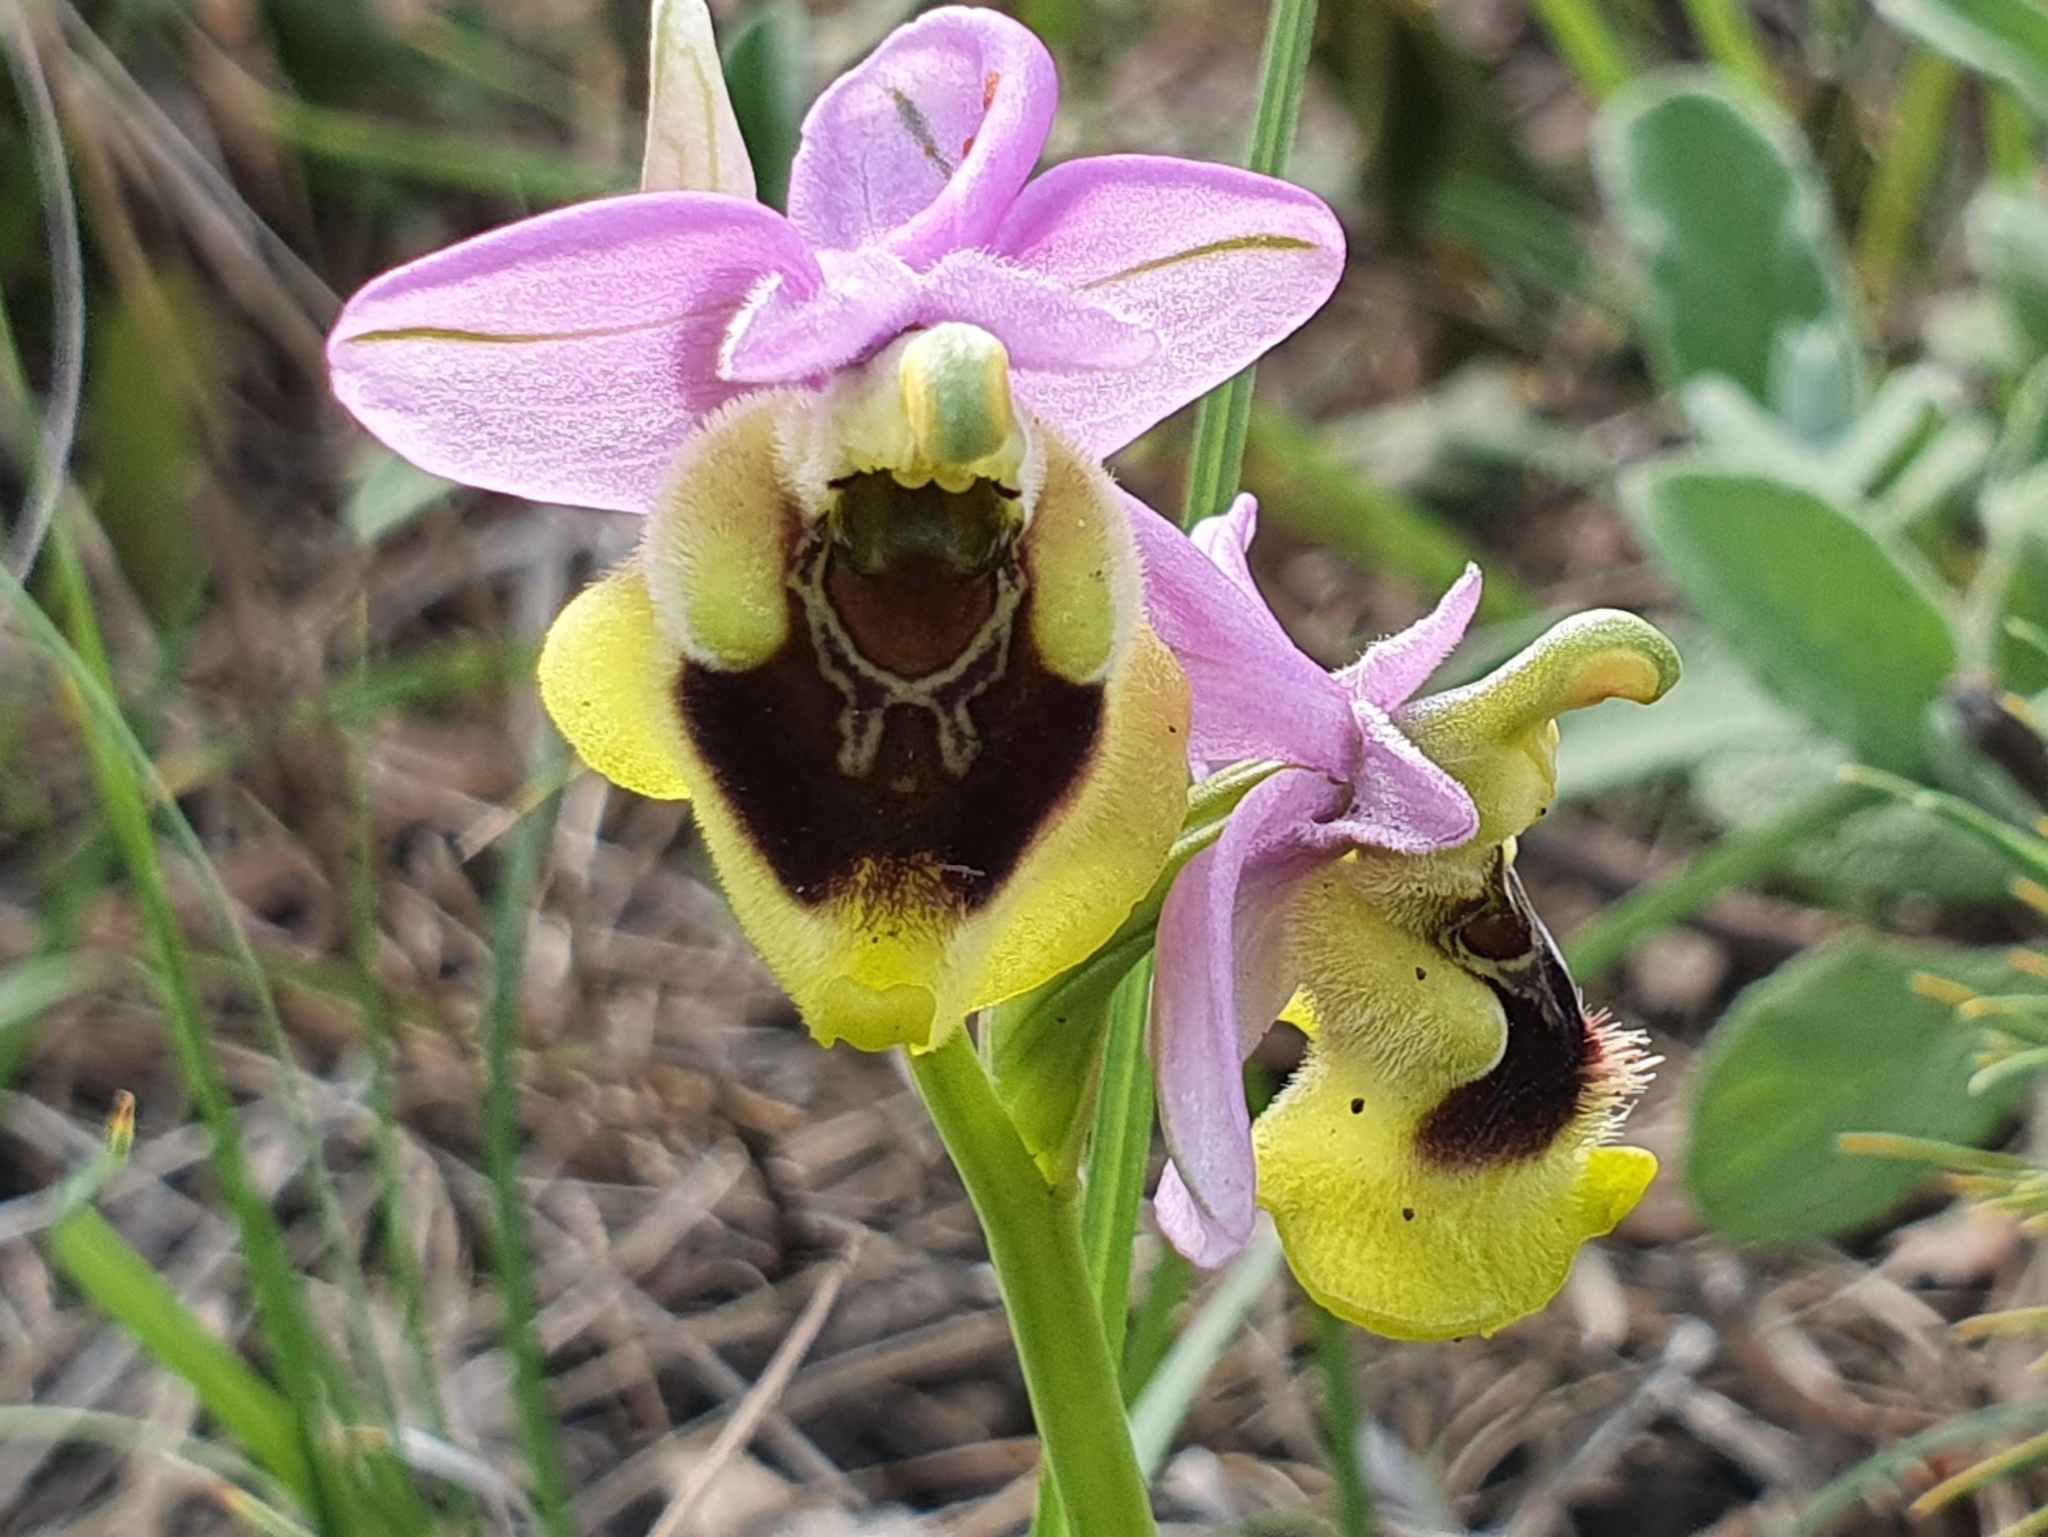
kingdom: Plantae
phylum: Tracheophyta
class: Liliopsida
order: Asparagales
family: Orchidaceae
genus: Ophrys
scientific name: Ophrys tenthredinifera
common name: Sawfly orchid
